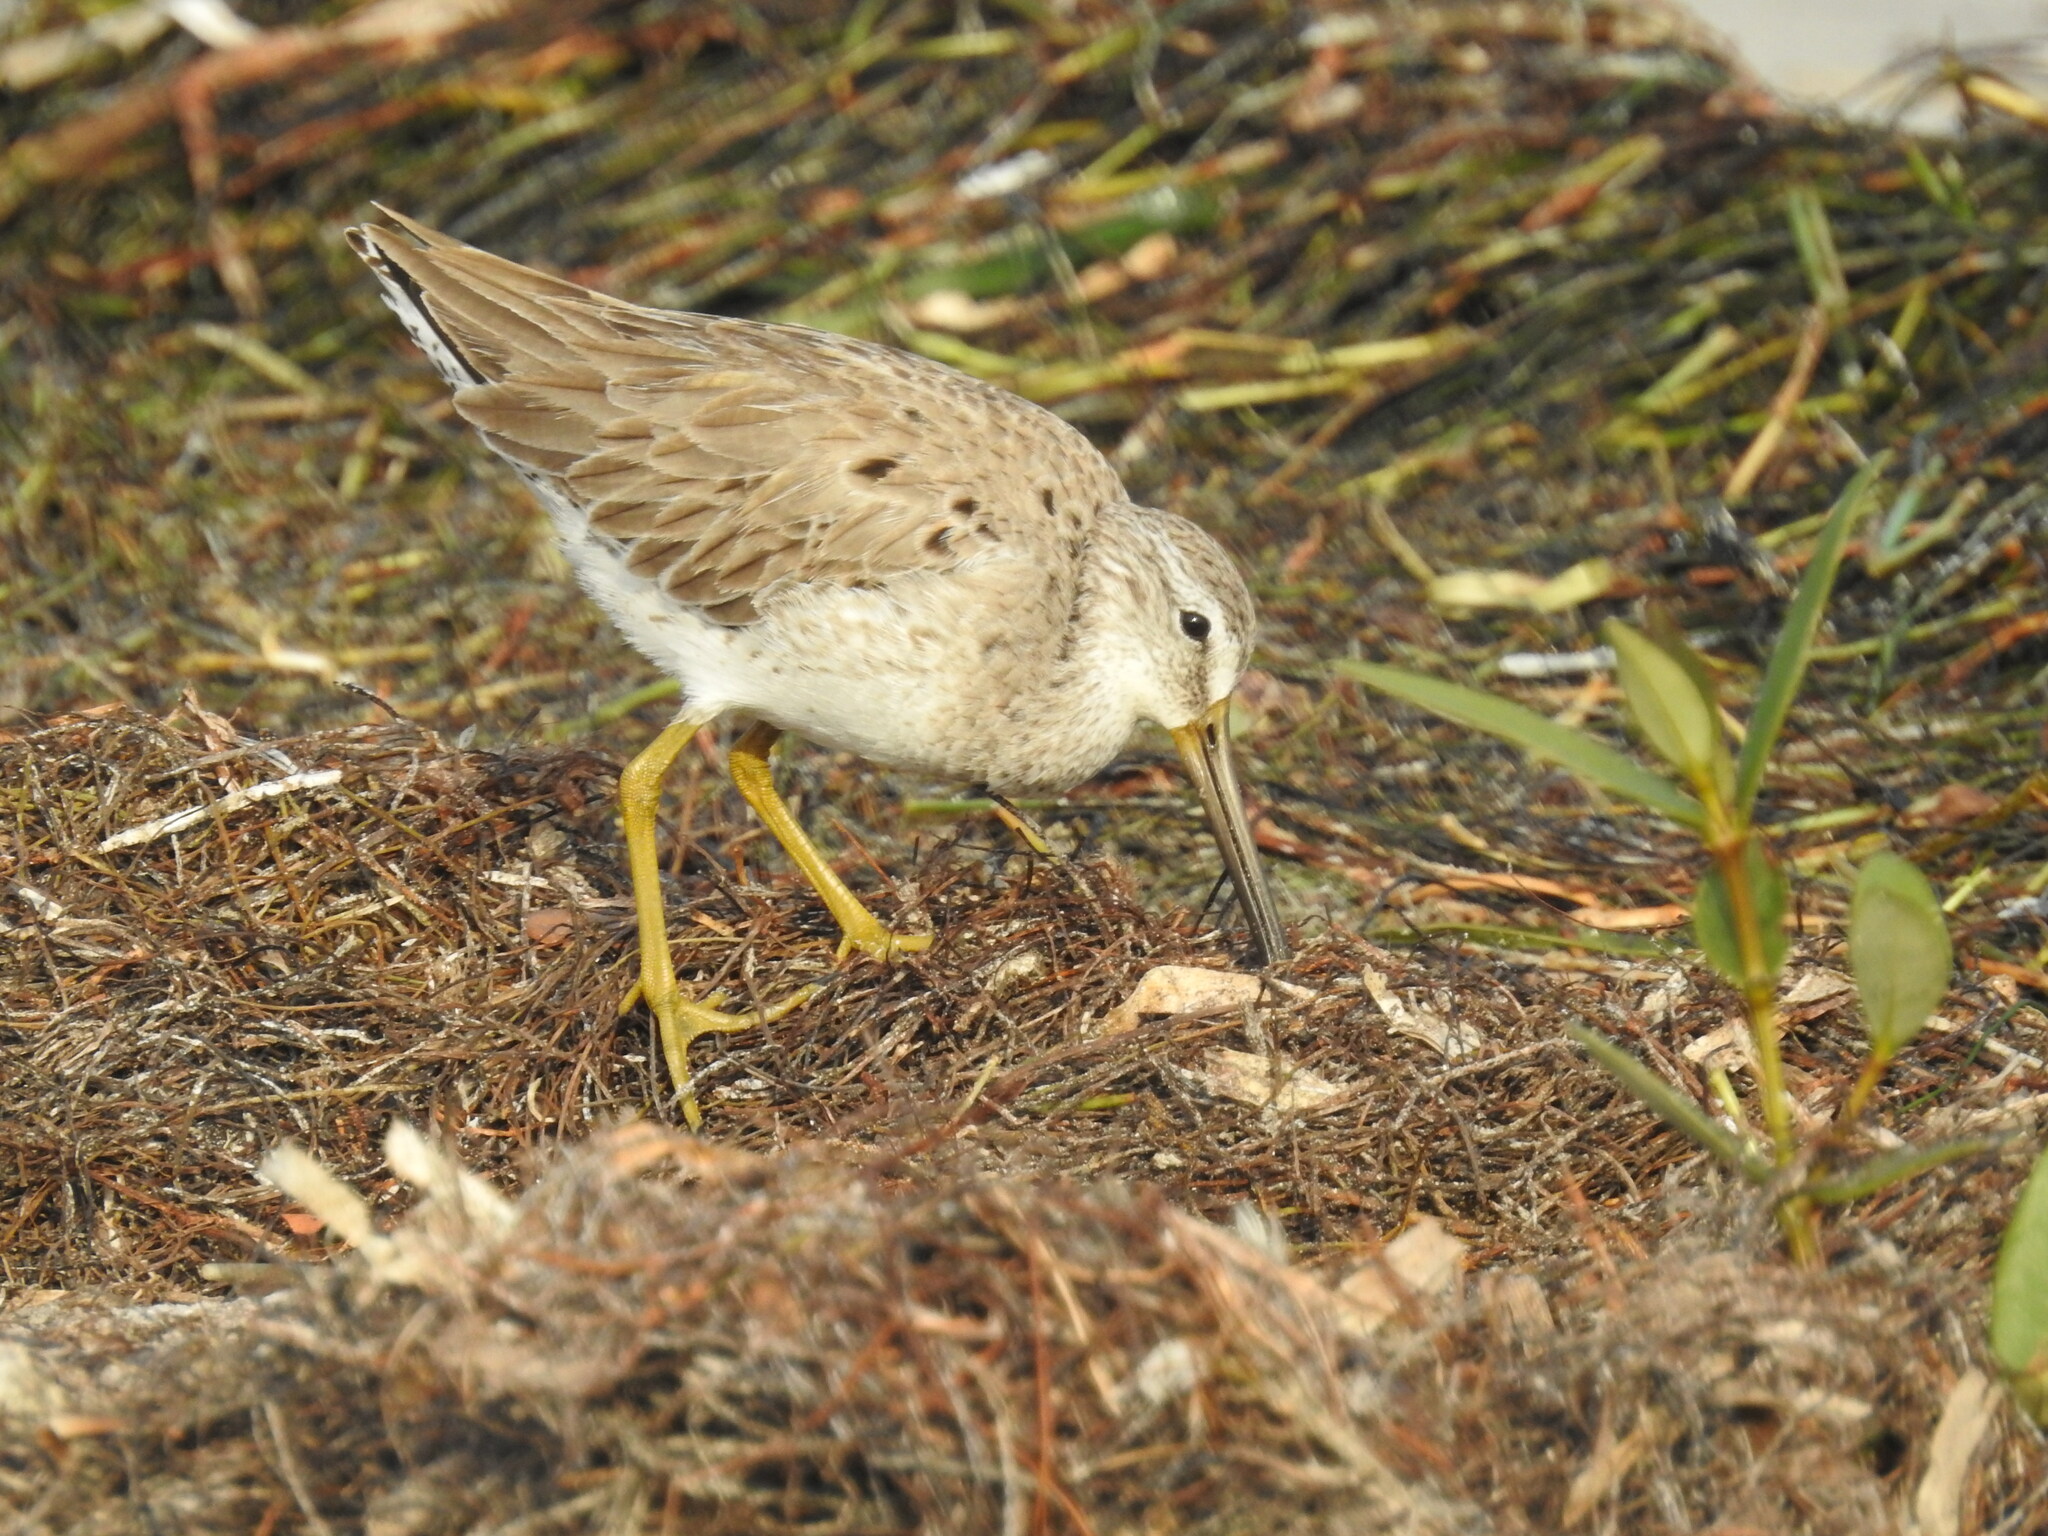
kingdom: Animalia
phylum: Chordata
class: Aves
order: Charadriiformes
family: Scolopacidae
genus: Limnodromus
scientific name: Limnodromus griseus
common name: Short-billed dowitcher
